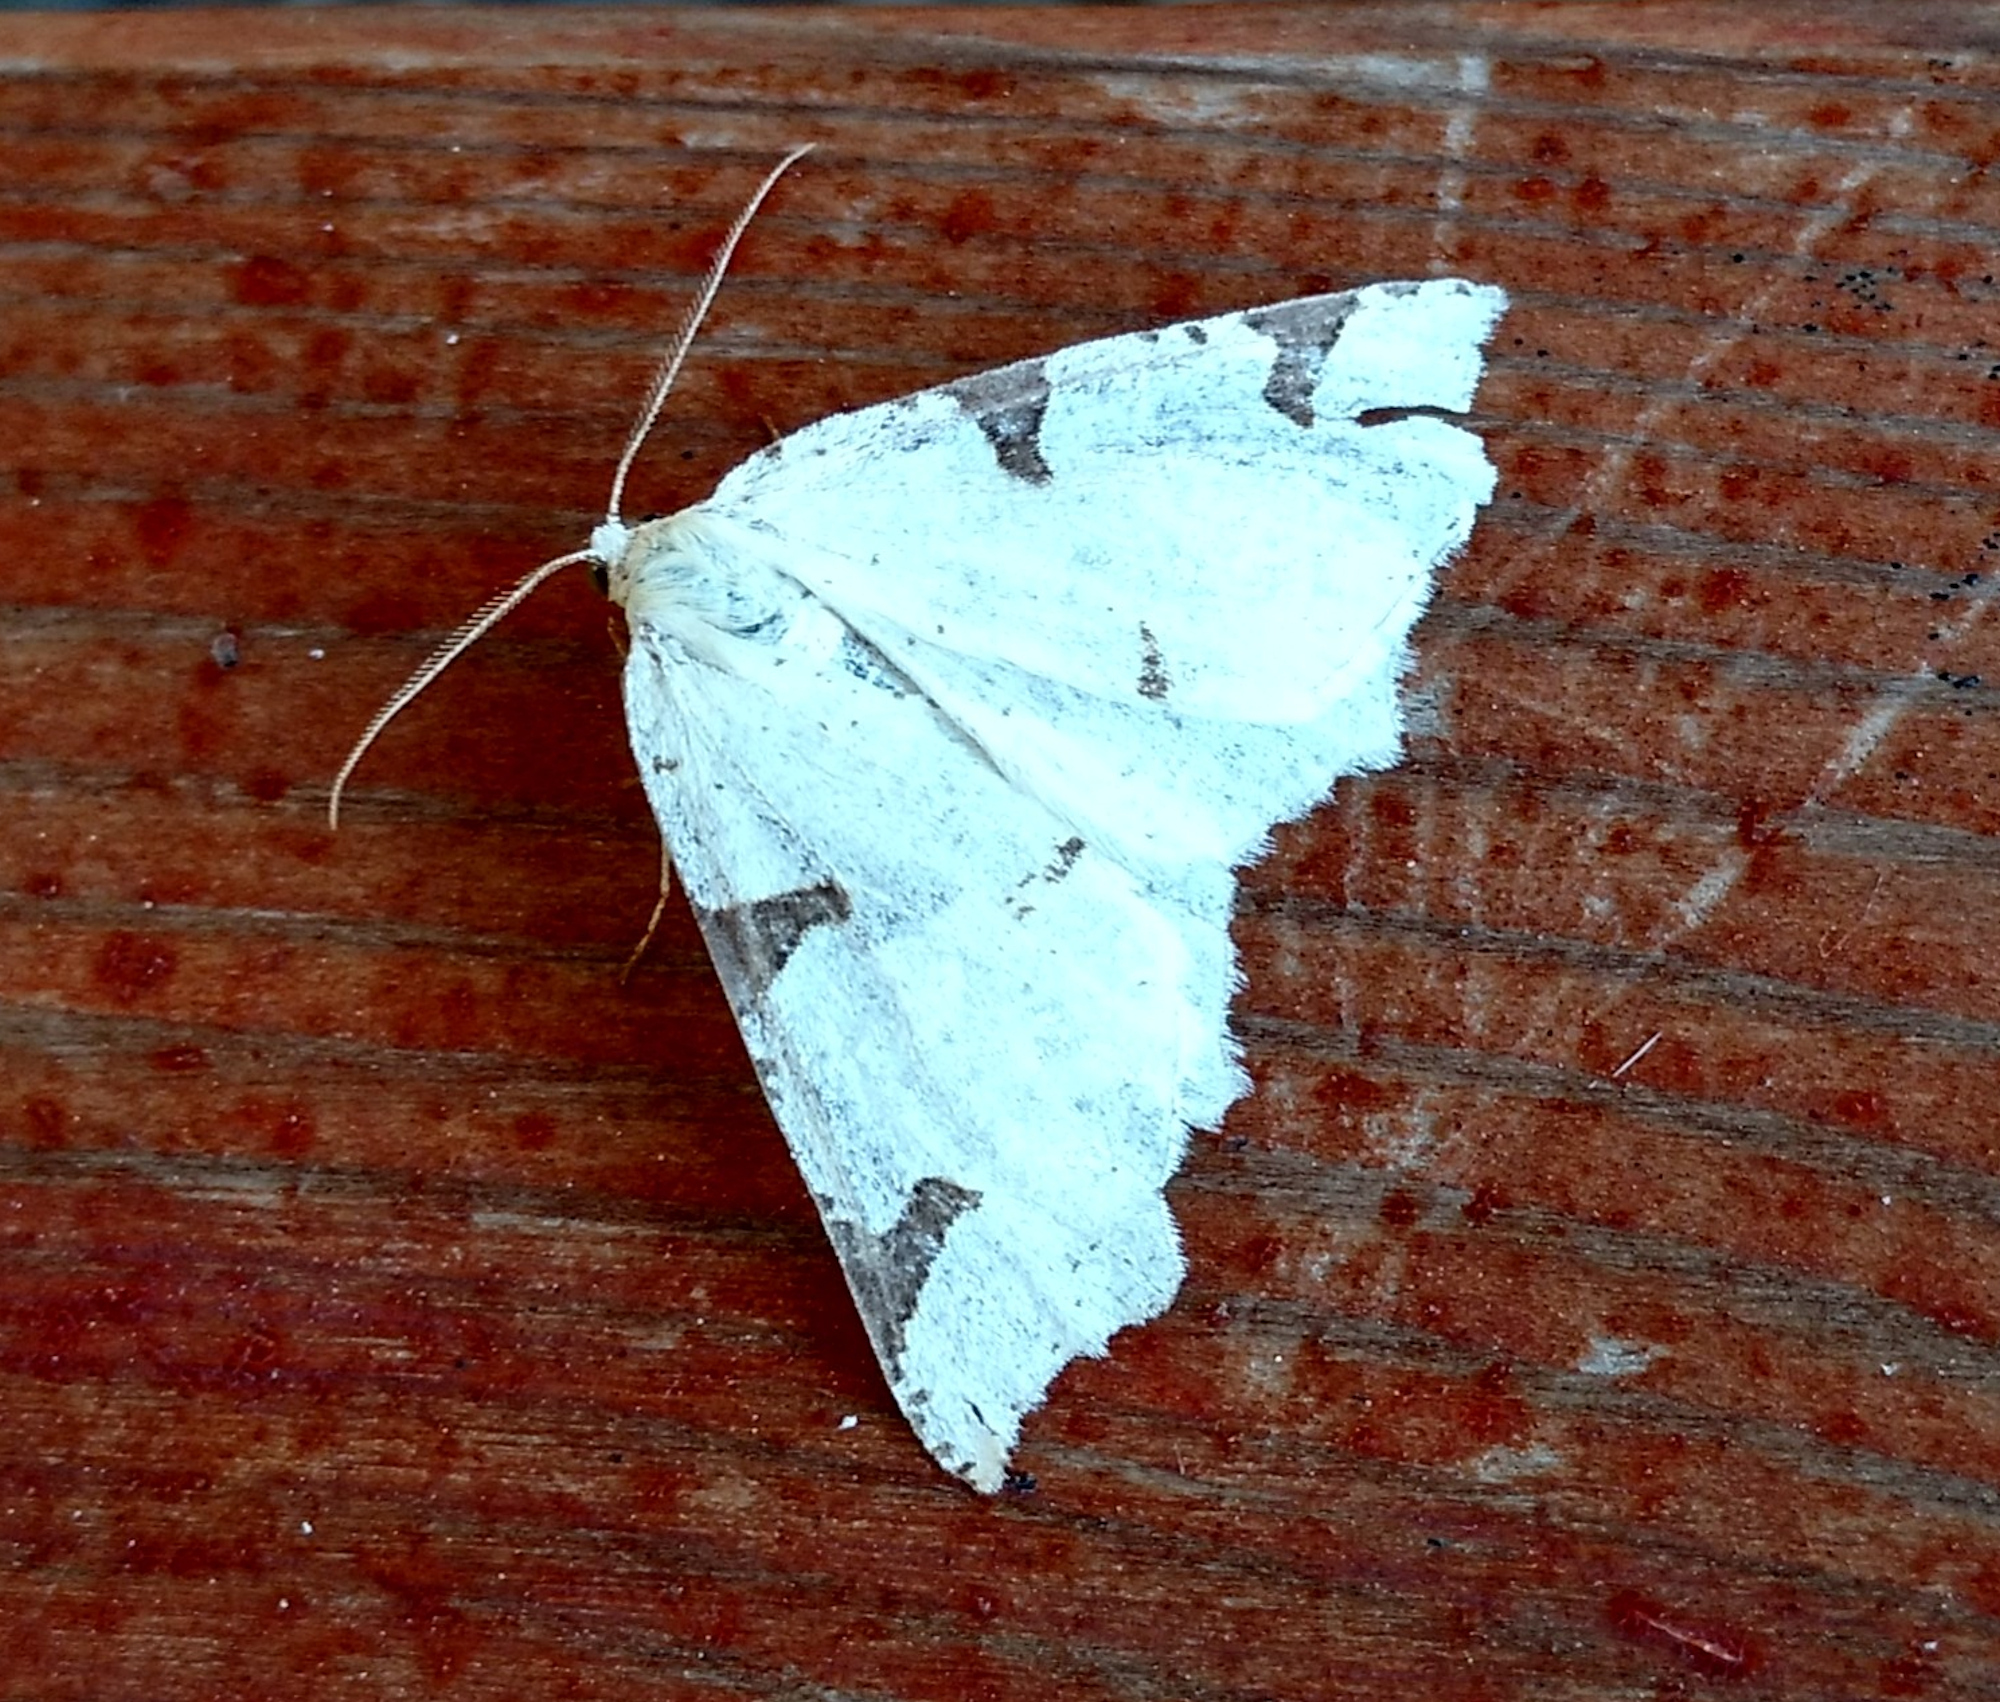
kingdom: Animalia
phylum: Arthropoda
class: Insecta
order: Lepidoptera
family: Geometridae
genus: Neoterpes
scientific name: Neoterpes trianguliferata
